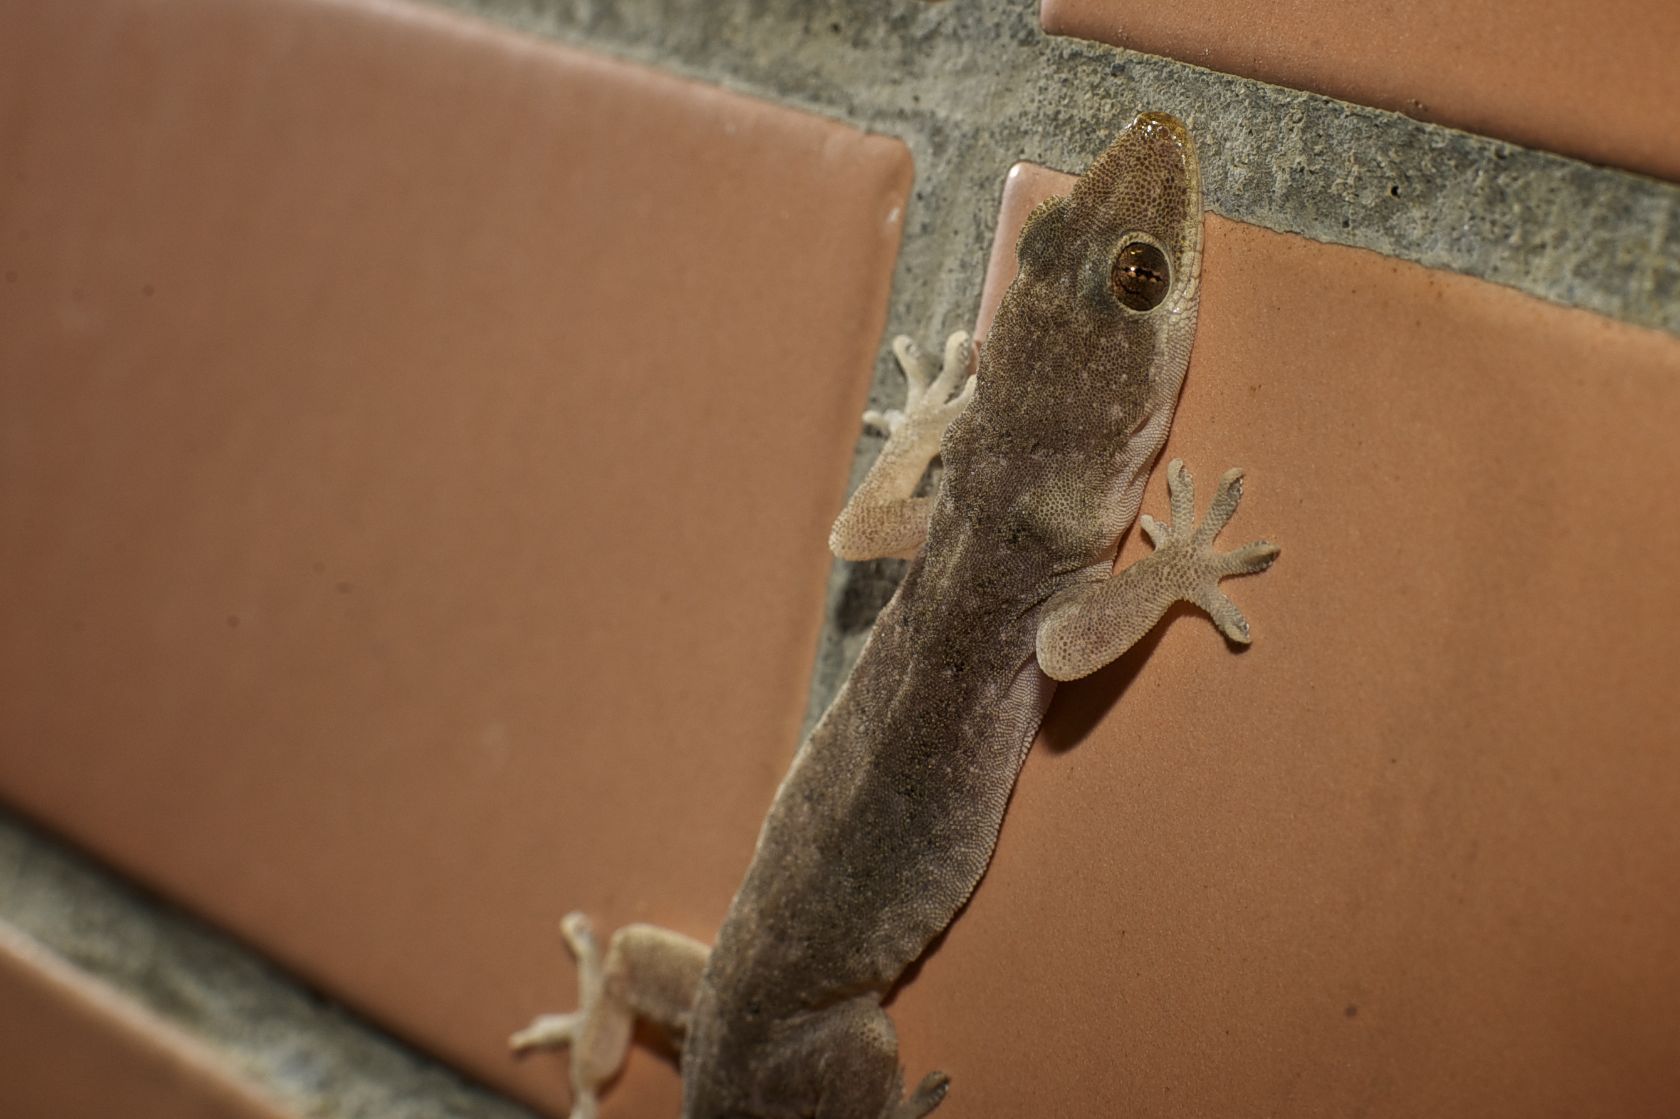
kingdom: Animalia
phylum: Chordata
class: Squamata
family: Gekkonidae
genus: Hemidactylus
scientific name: Hemidactylus bowringii
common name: Oriental leaf-toed gecko
